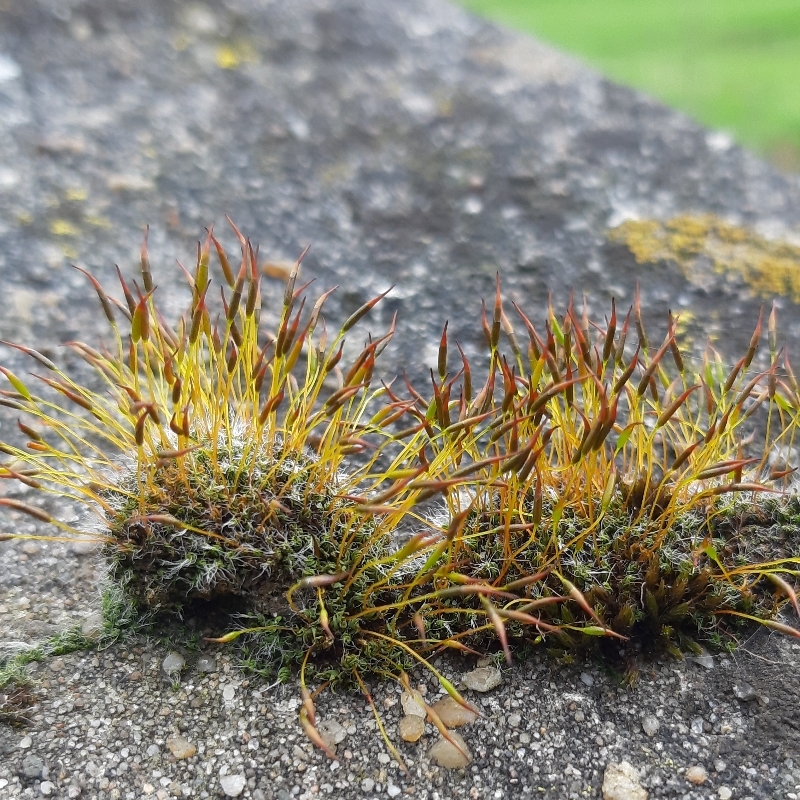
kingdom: Plantae
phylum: Bryophyta
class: Bryopsida
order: Pottiales
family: Pottiaceae
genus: Tortula
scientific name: Tortula muralis
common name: Wall screw-moss
